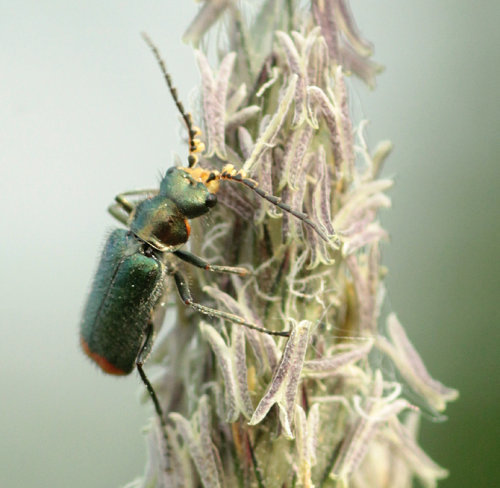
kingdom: Animalia
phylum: Arthropoda
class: Insecta
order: Coleoptera
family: Melyridae
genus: Malachius
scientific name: Malachius bipustulatus
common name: Malachite beetle
